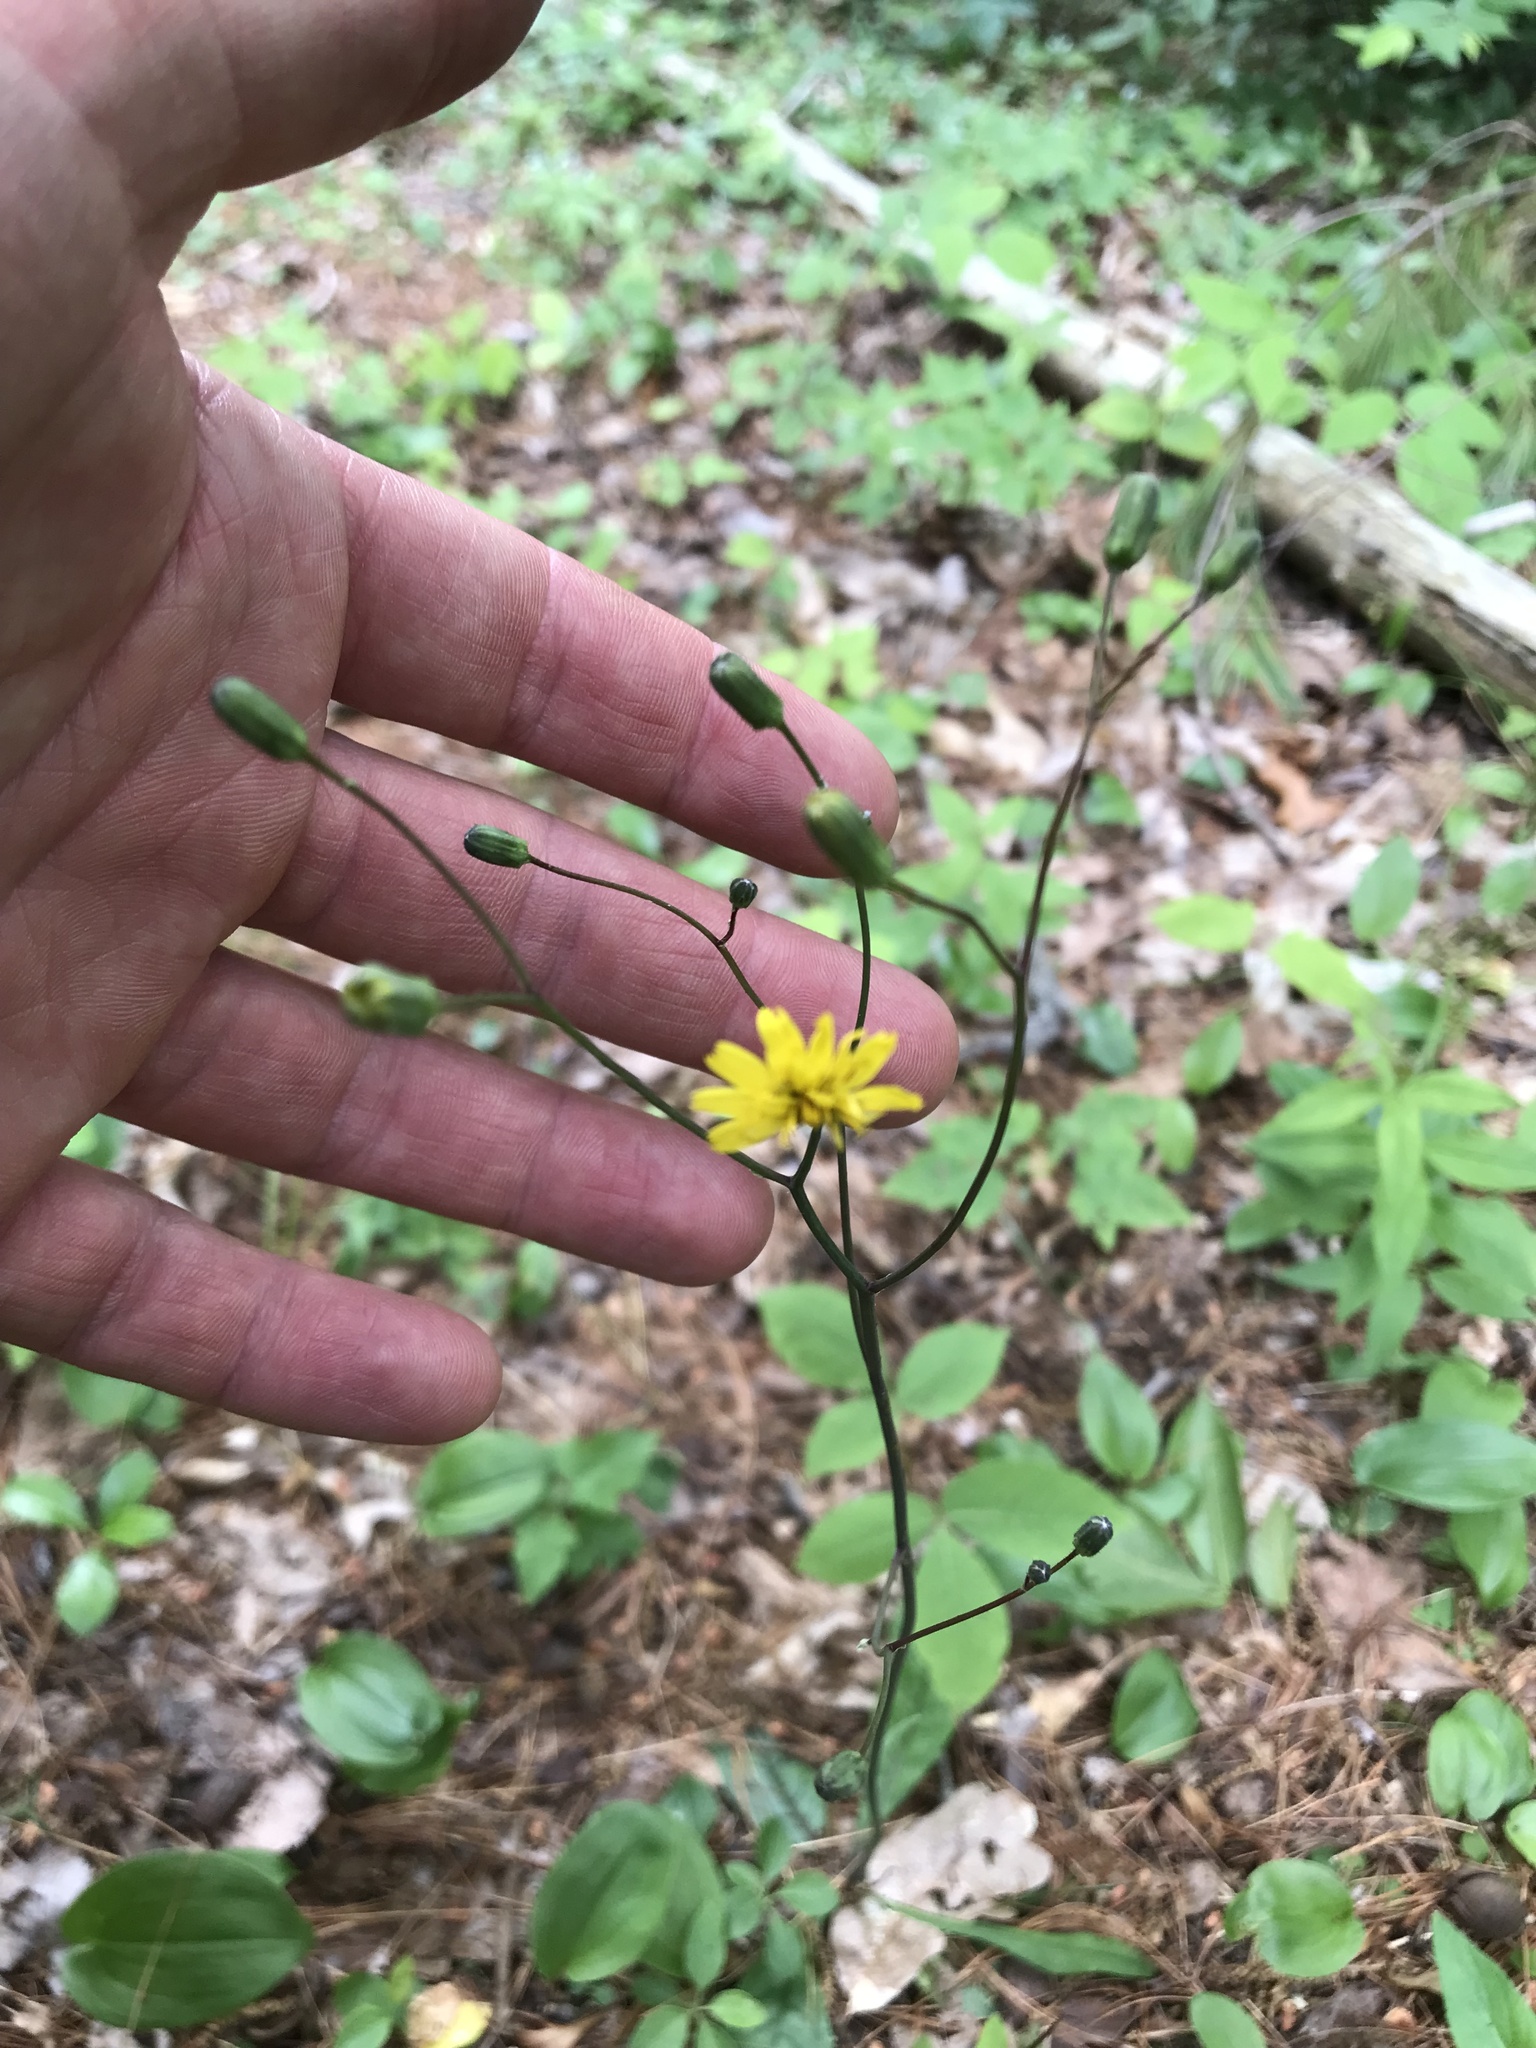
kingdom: Plantae
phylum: Tracheophyta
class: Magnoliopsida
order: Asterales
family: Asteraceae
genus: Hieracium
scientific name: Hieracium venosum
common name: Rattlesnake hawkweed
